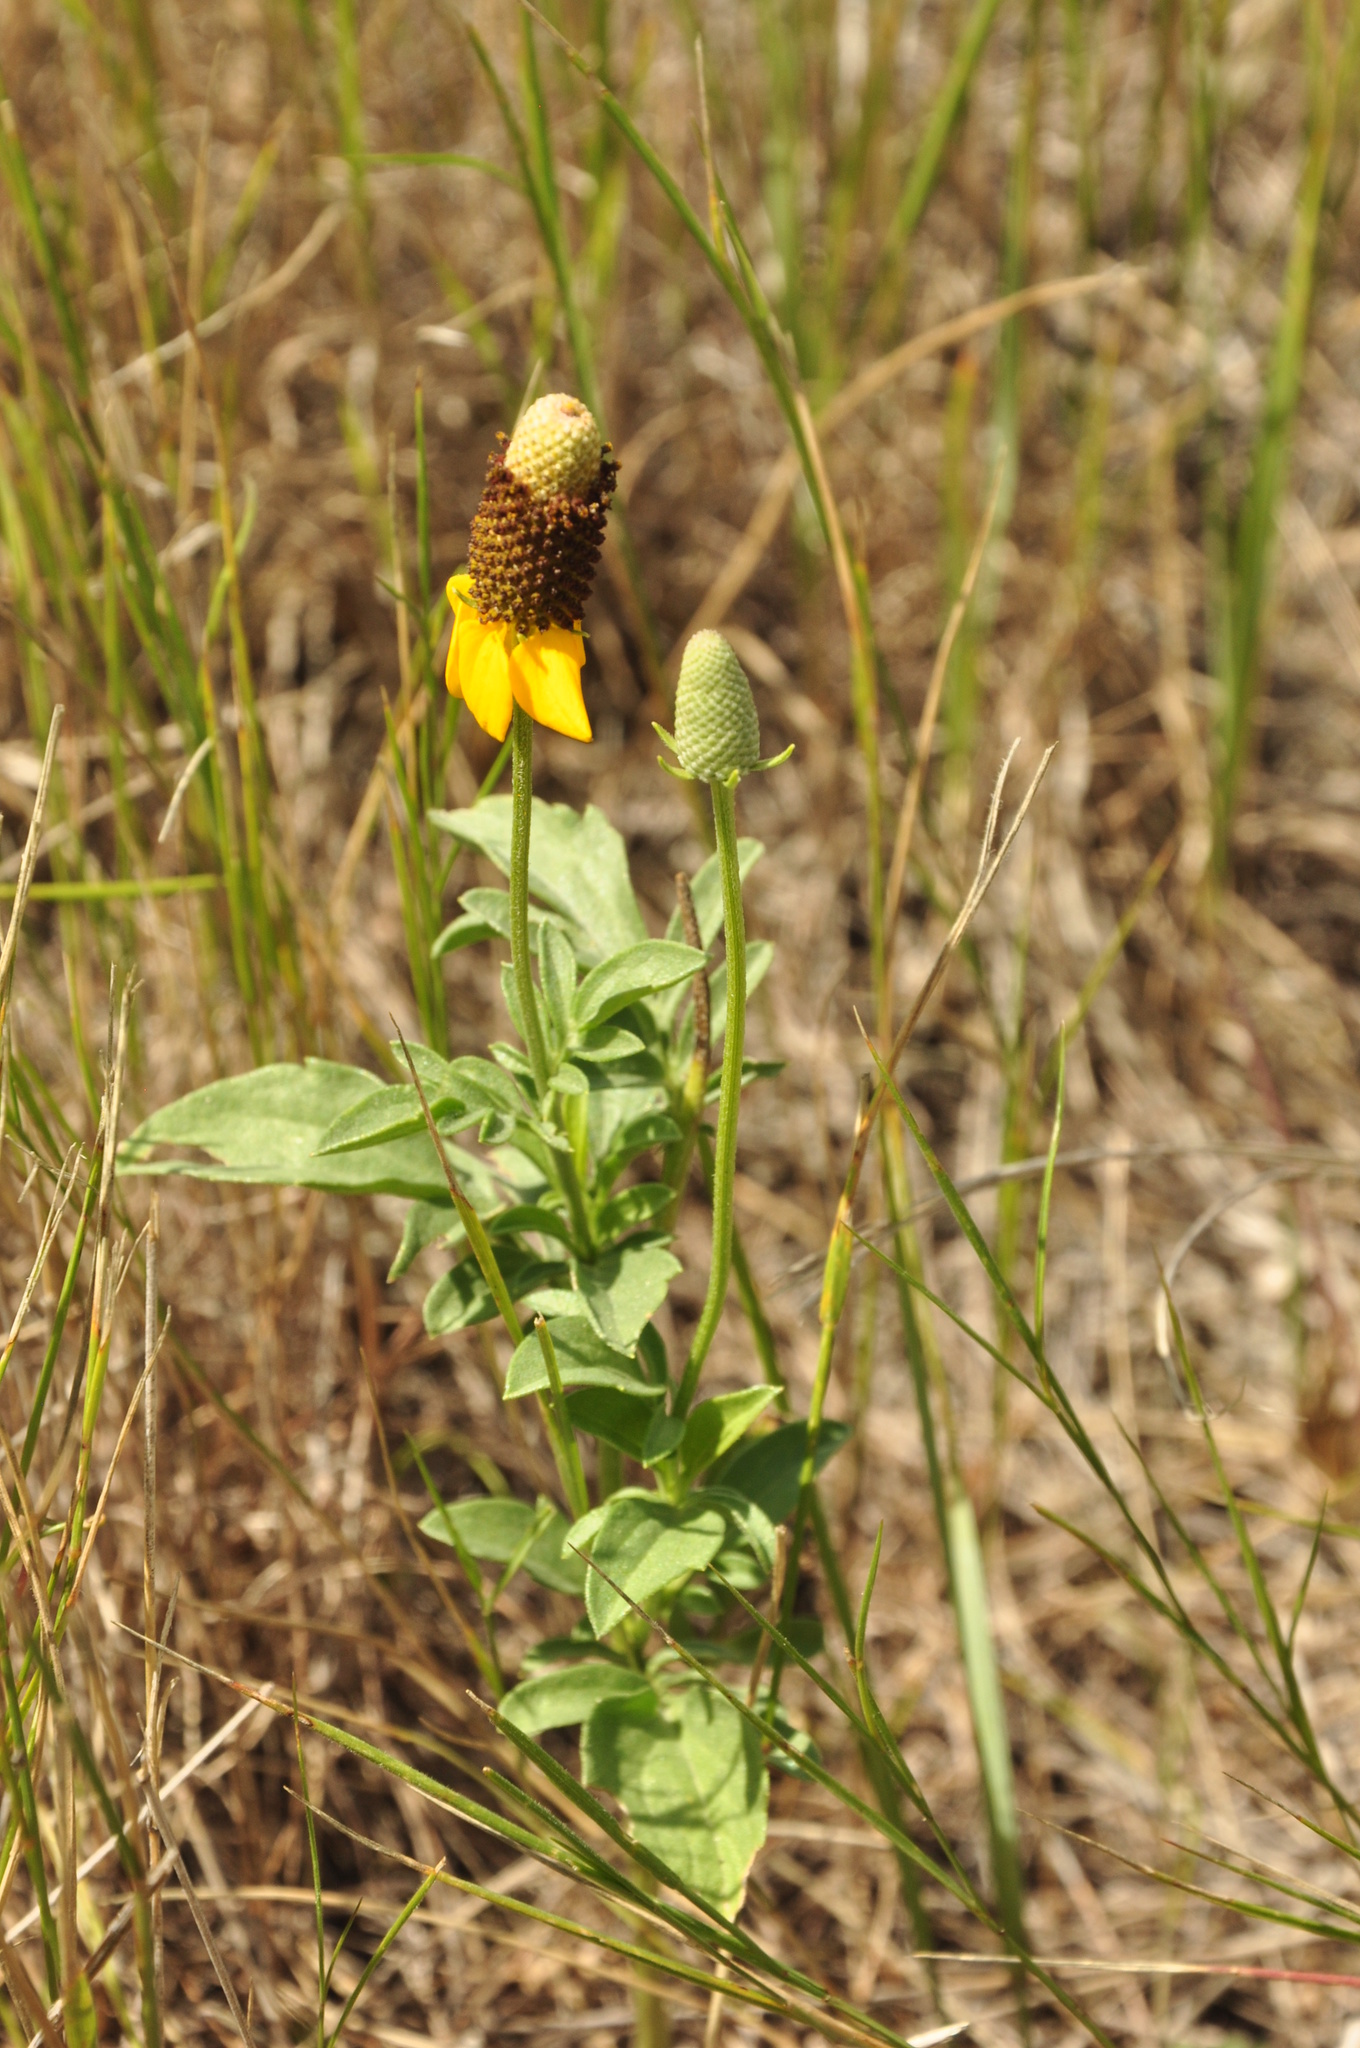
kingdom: Plantae
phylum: Tracheophyta
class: Magnoliopsida
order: Asterales
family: Asteraceae
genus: Ratibida
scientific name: Ratibida columnifera
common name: Prairie coneflower
